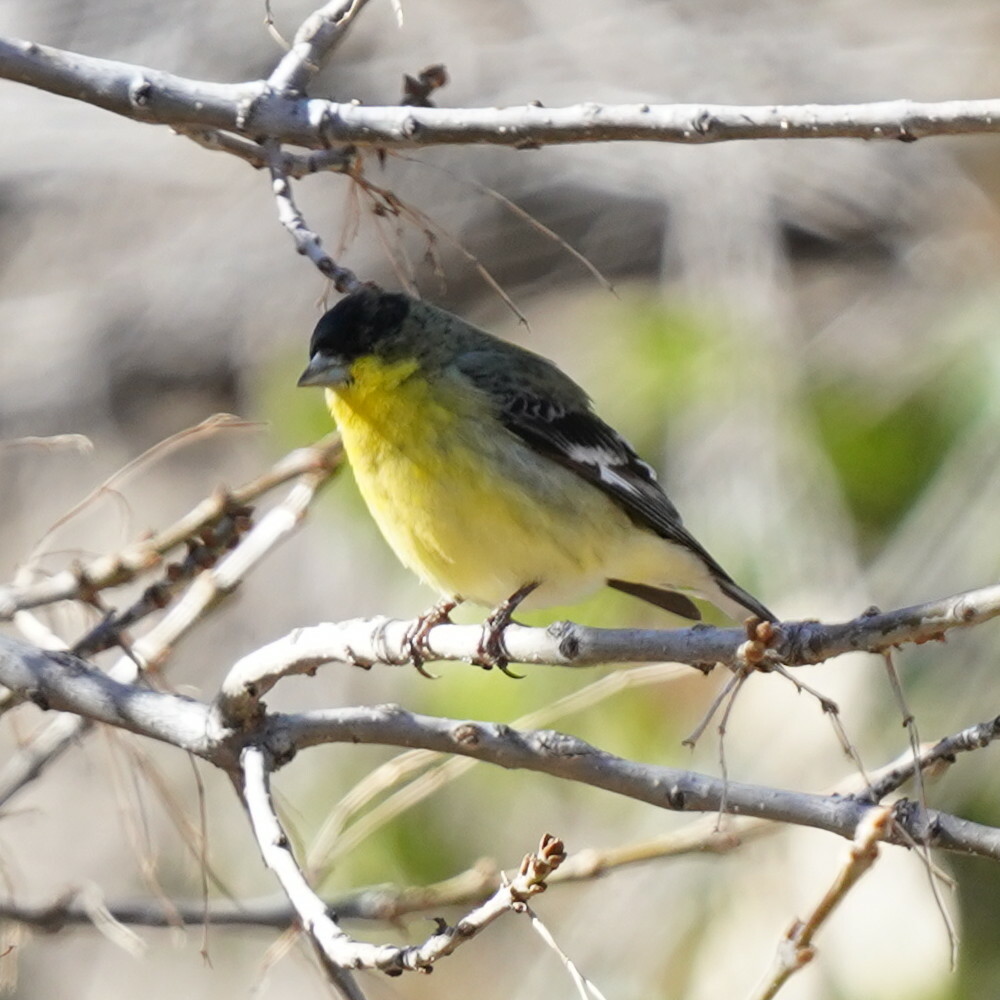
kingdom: Animalia
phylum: Chordata
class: Aves
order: Passeriformes
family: Fringillidae
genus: Spinus
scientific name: Spinus psaltria
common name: Lesser goldfinch
